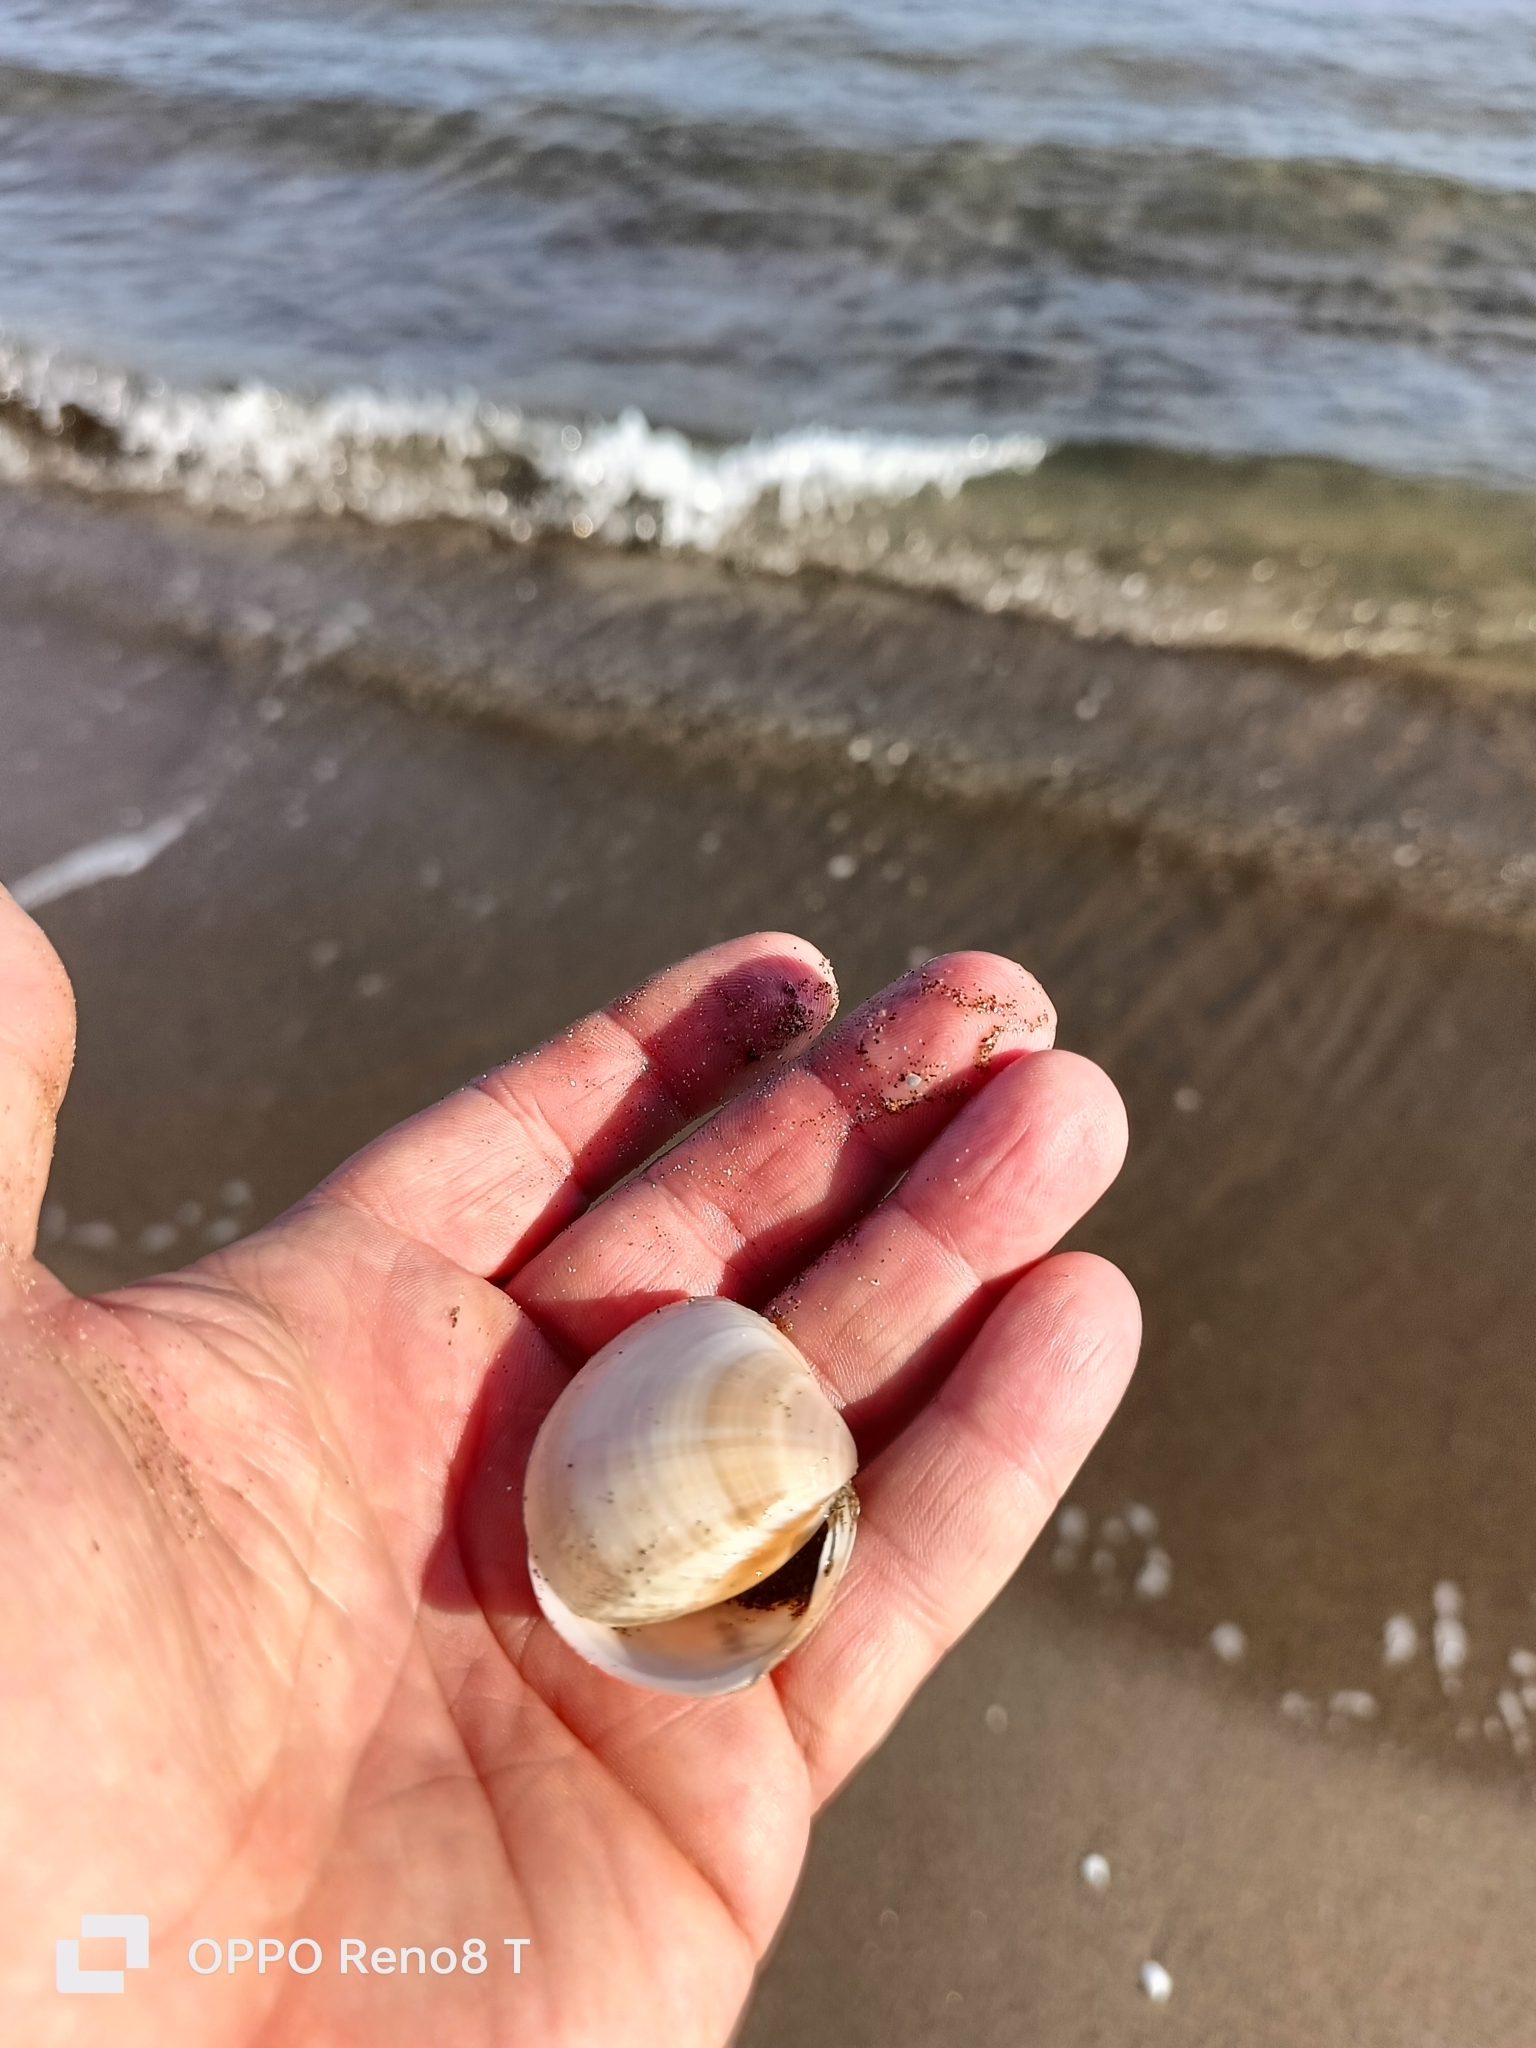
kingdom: Animalia
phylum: Mollusca
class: Bivalvia
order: Venerida
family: Mactridae
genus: Mactra
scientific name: Mactra stultorum
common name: Rayed trough shell
